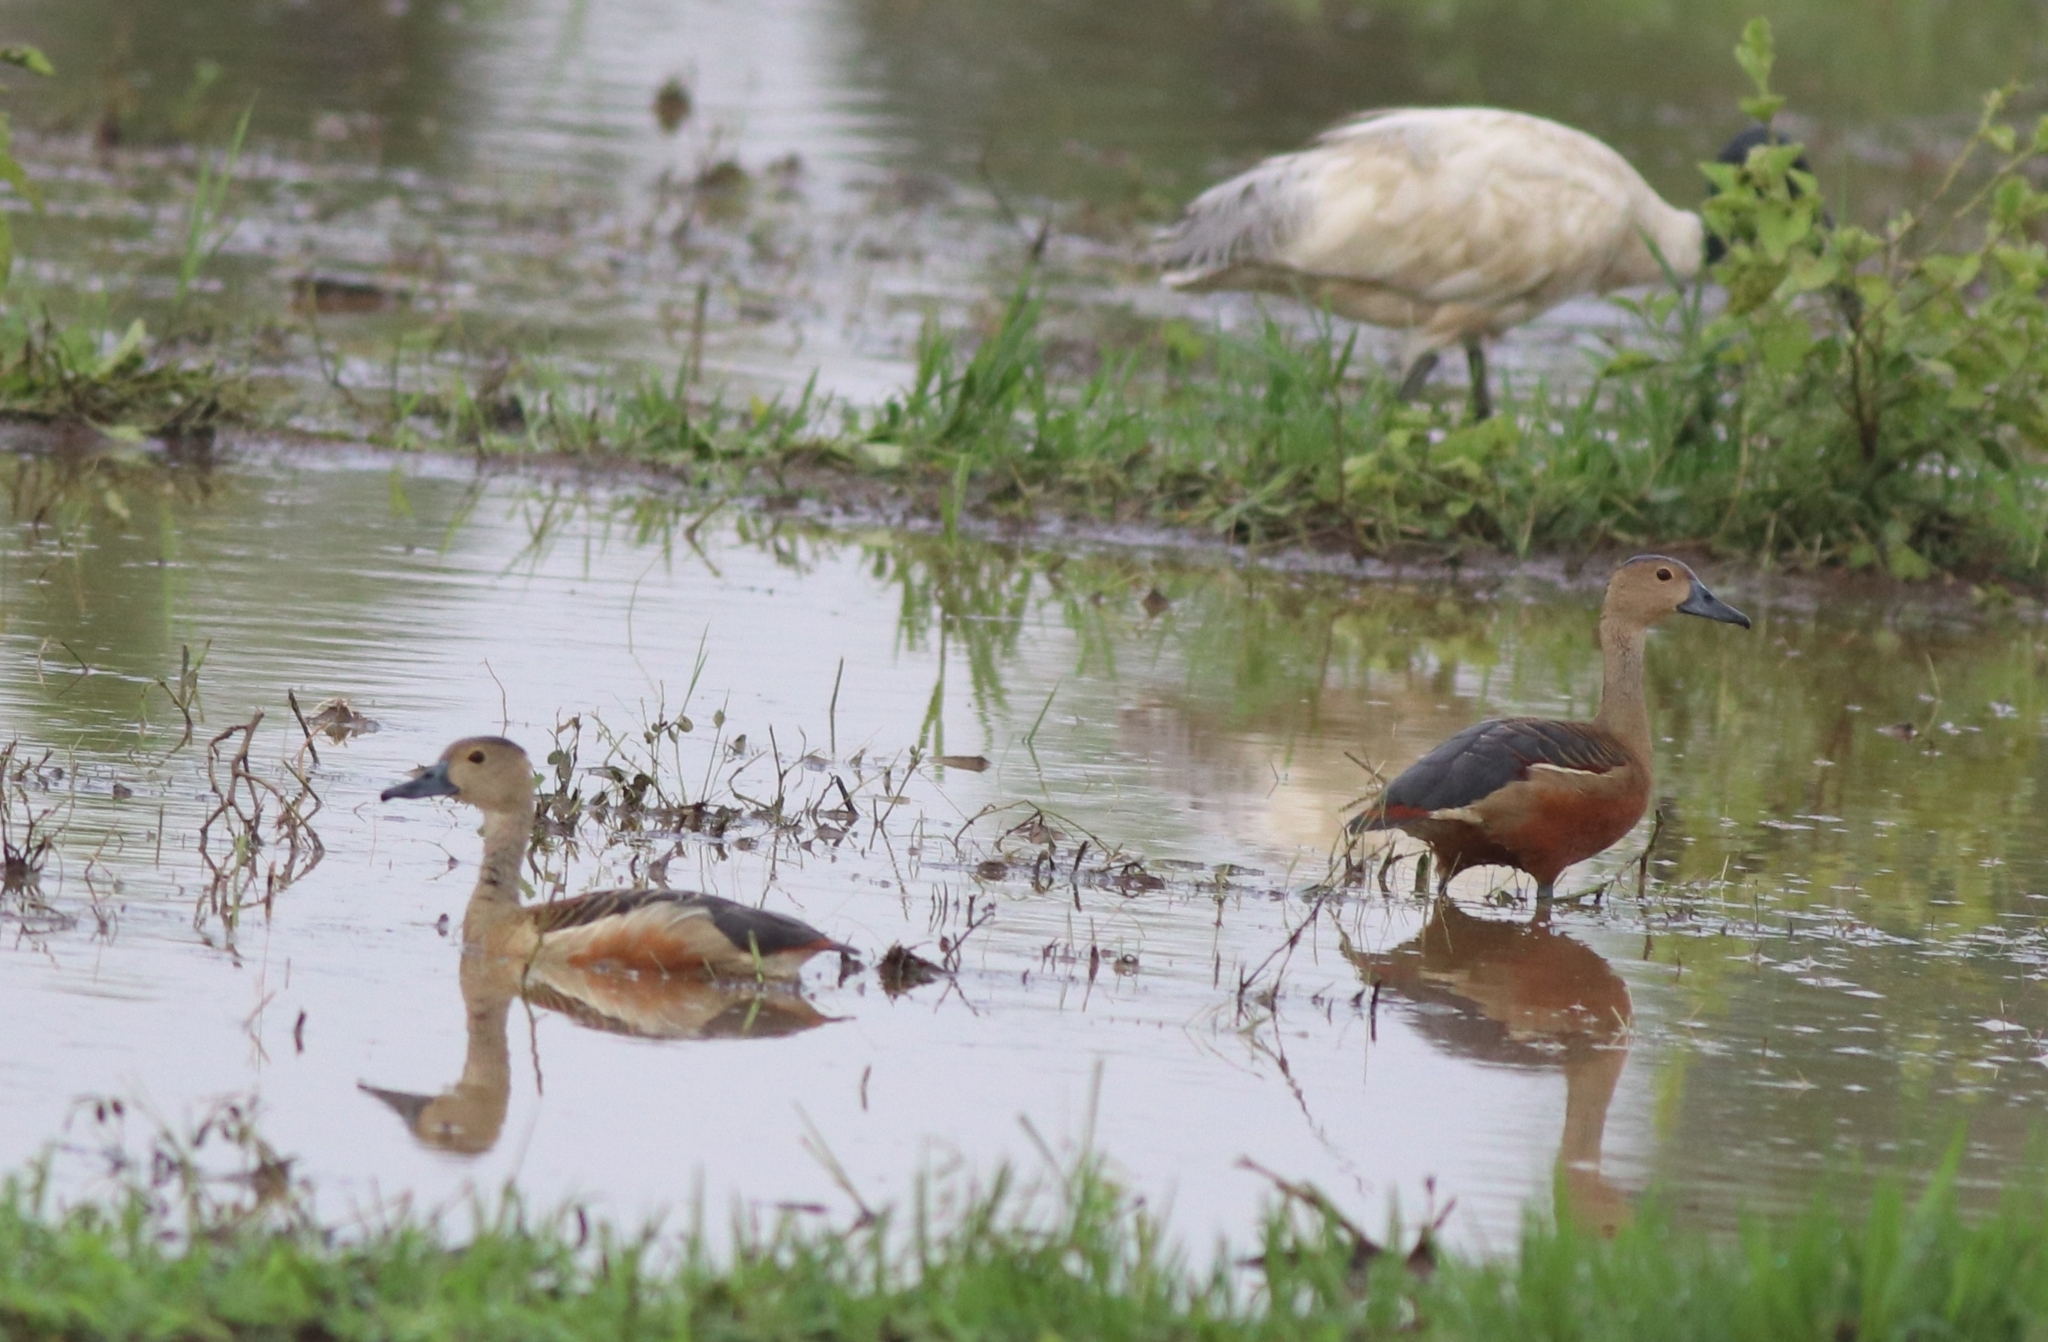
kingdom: Animalia
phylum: Chordata
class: Aves
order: Anseriformes
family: Anatidae
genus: Dendrocygna
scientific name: Dendrocygna javanica
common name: Lesser whistling-duck
